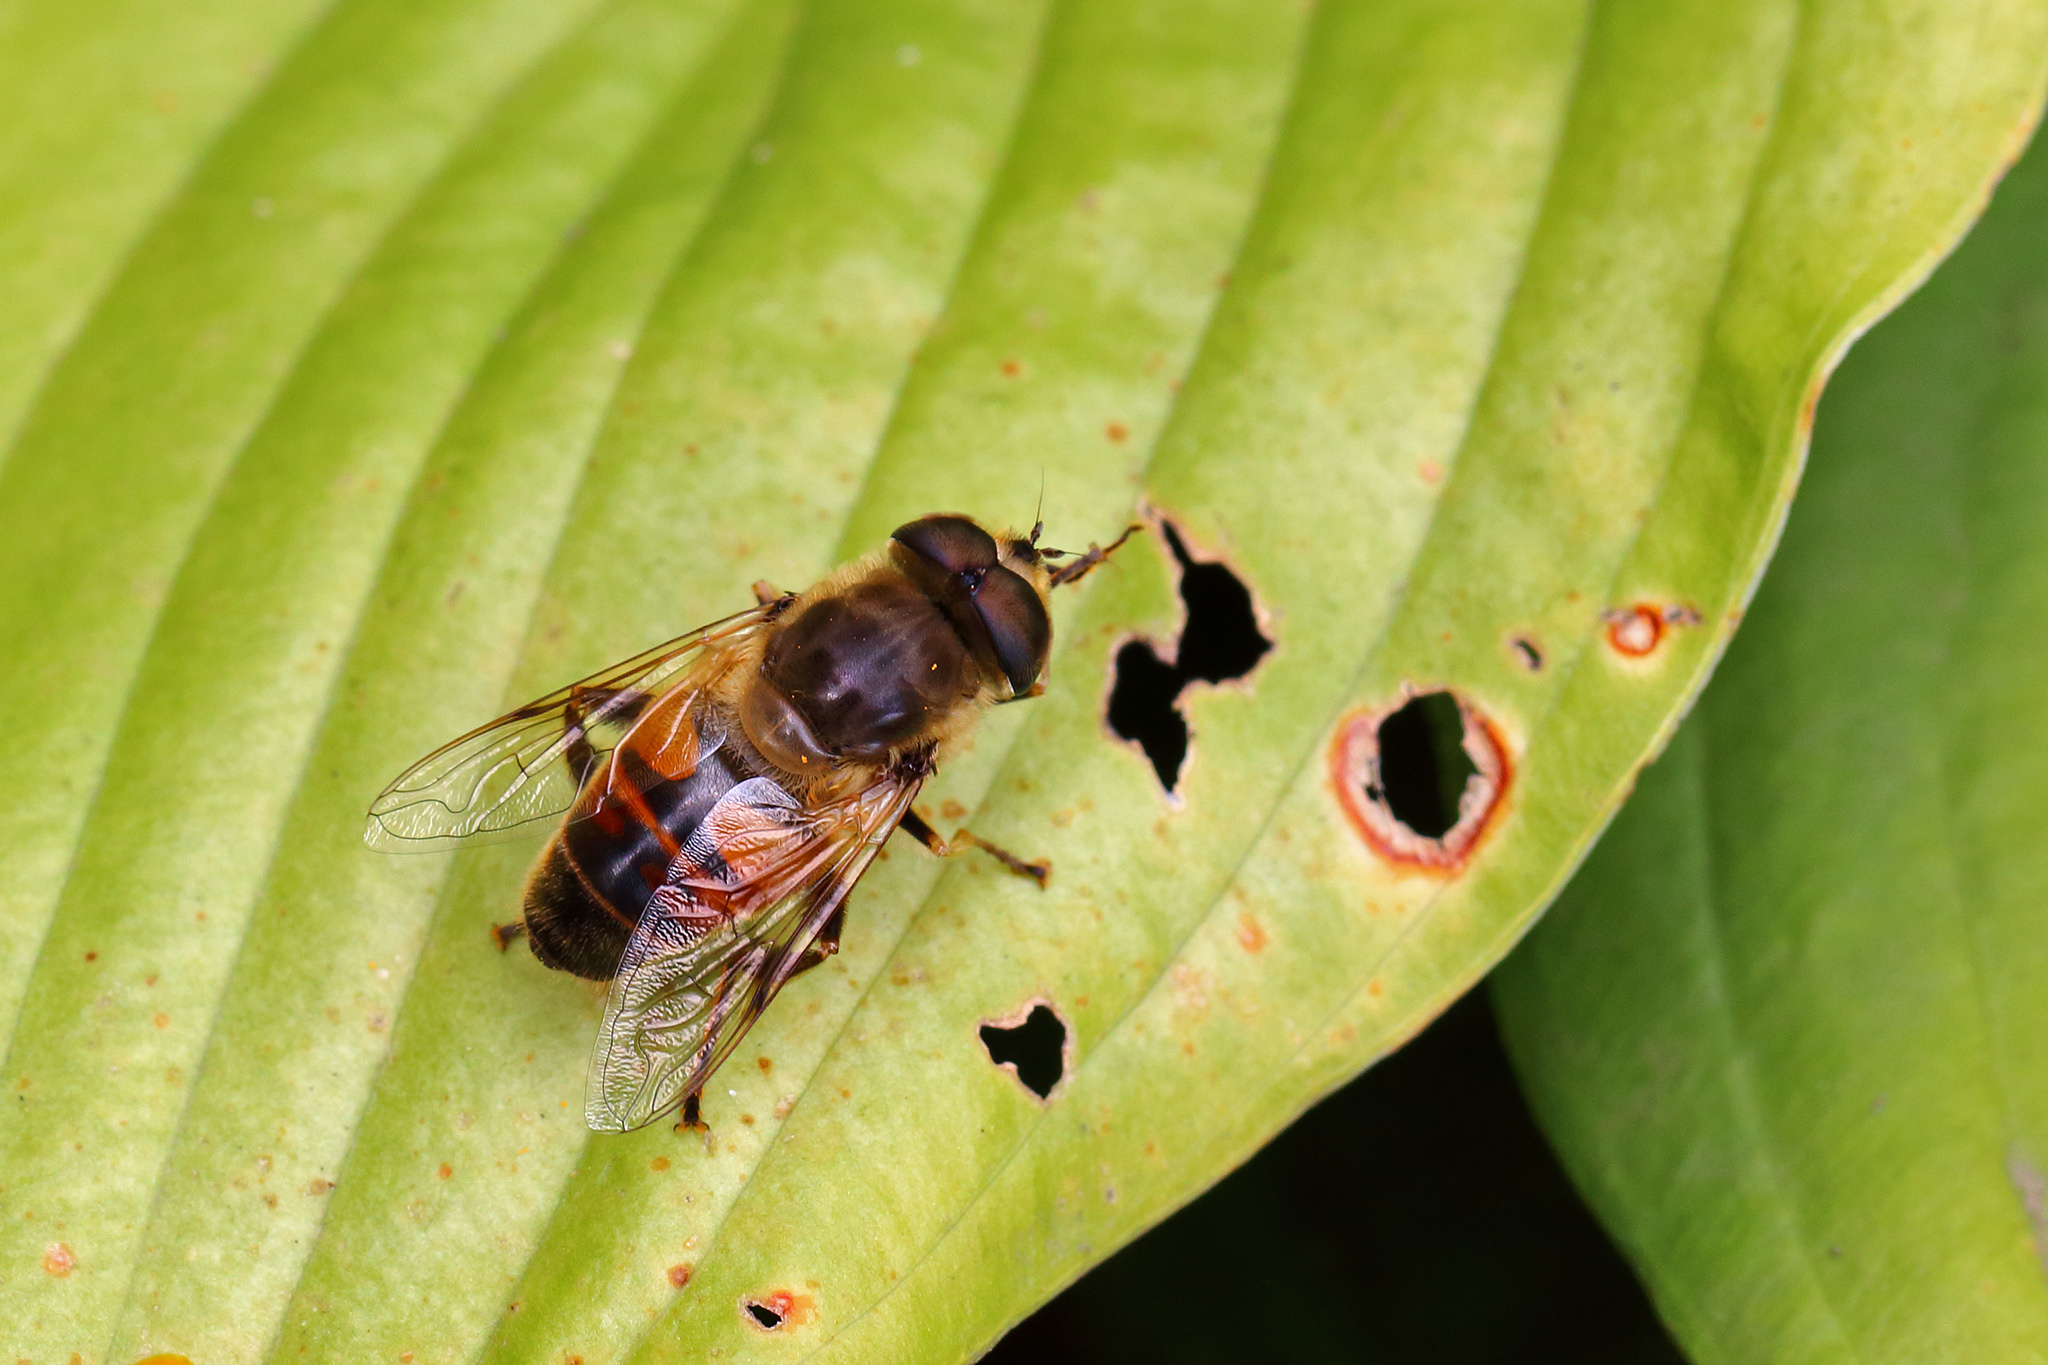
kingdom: Animalia
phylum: Arthropoda
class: Insecta
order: Diptera
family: Syrphidae
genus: Eristalis
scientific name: Eristalis tenax
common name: Drone fly
